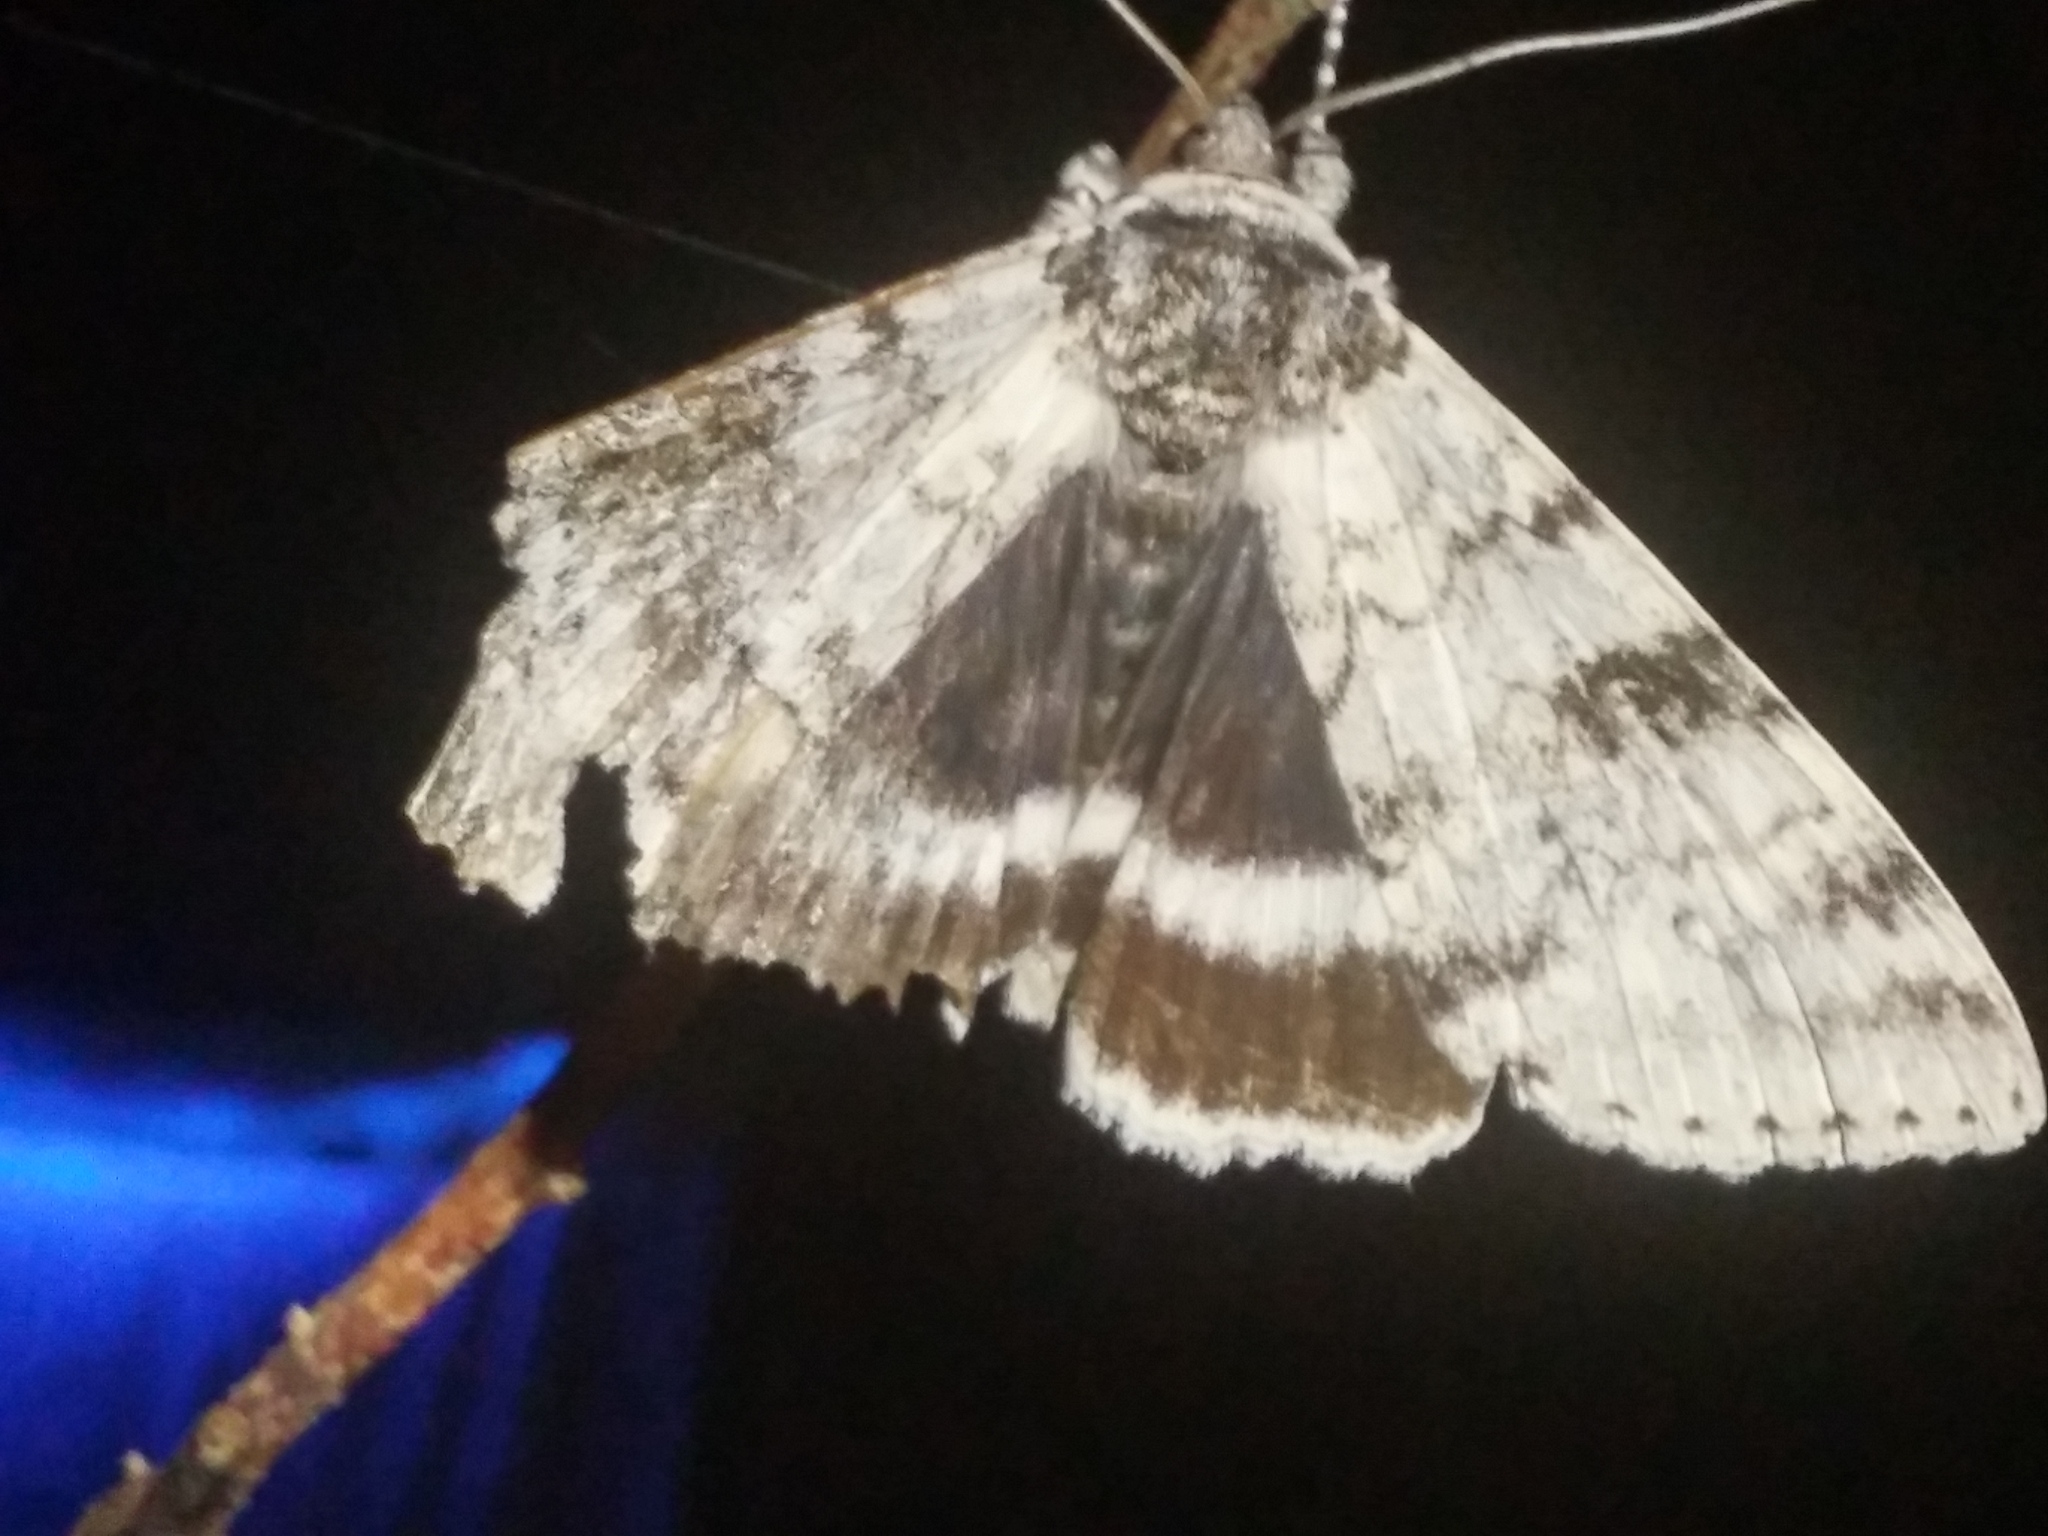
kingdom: Animalia
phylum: Arthropoda
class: Insecta
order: Lepidoptera
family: Erebidae
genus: Catocala
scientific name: Catocala relicta
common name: White underwing
